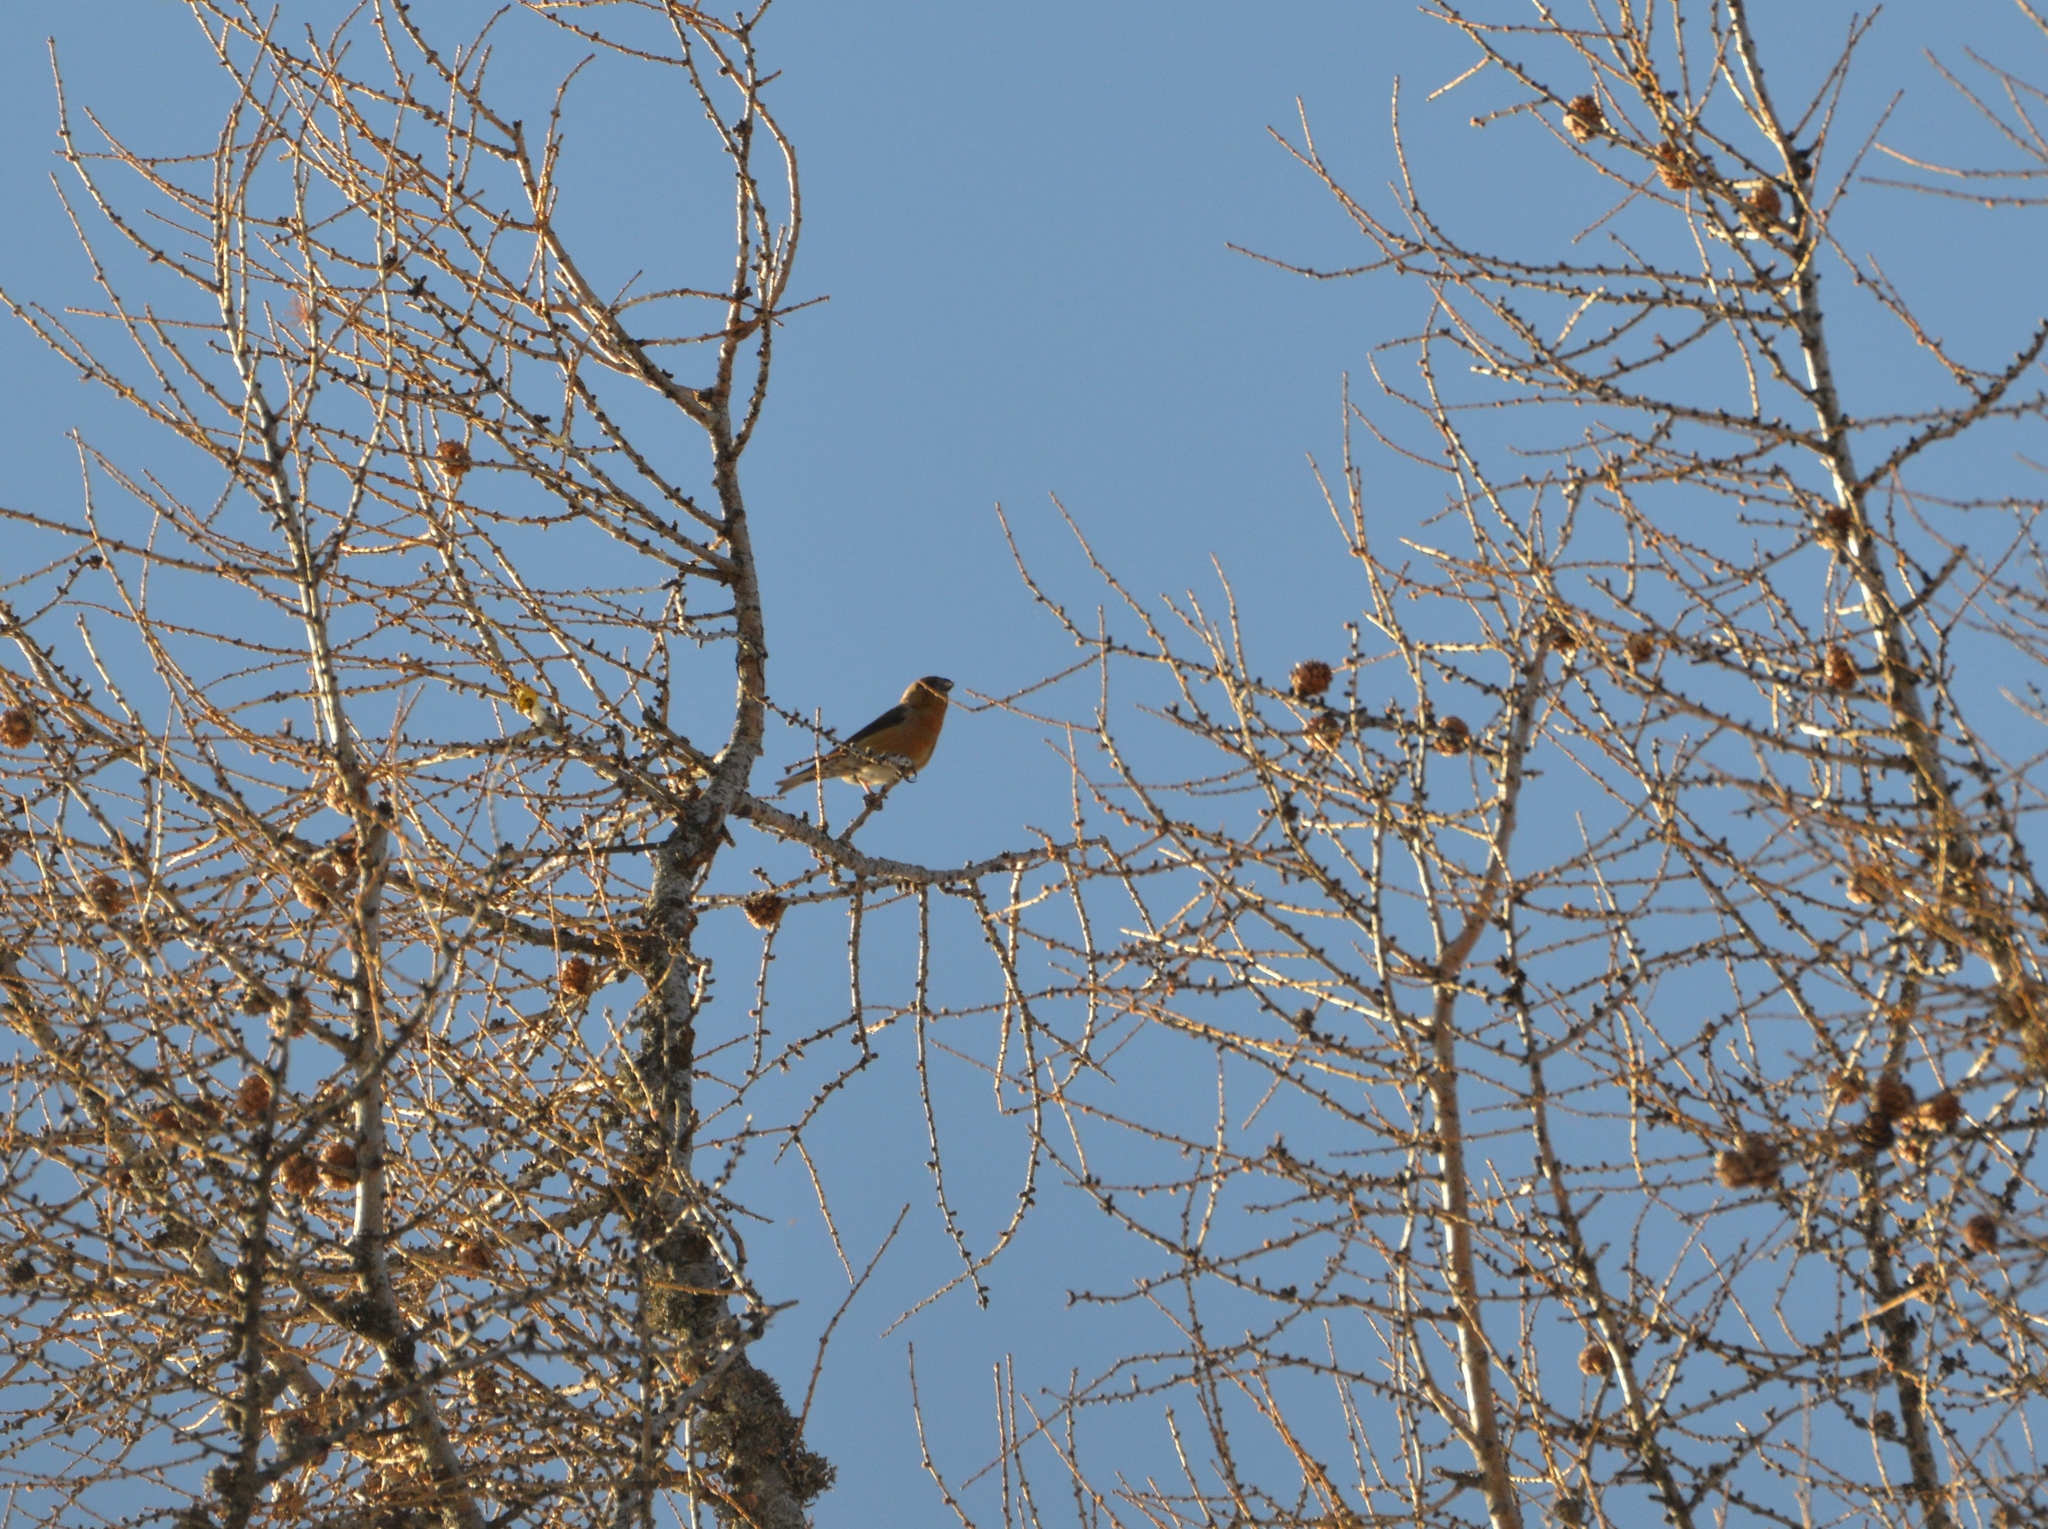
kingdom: Animalia
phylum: Chordata
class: Aves
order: Passeriformes
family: Fringillidae
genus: Loxia
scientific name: Loxia curvirostra
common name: Red crossbill
